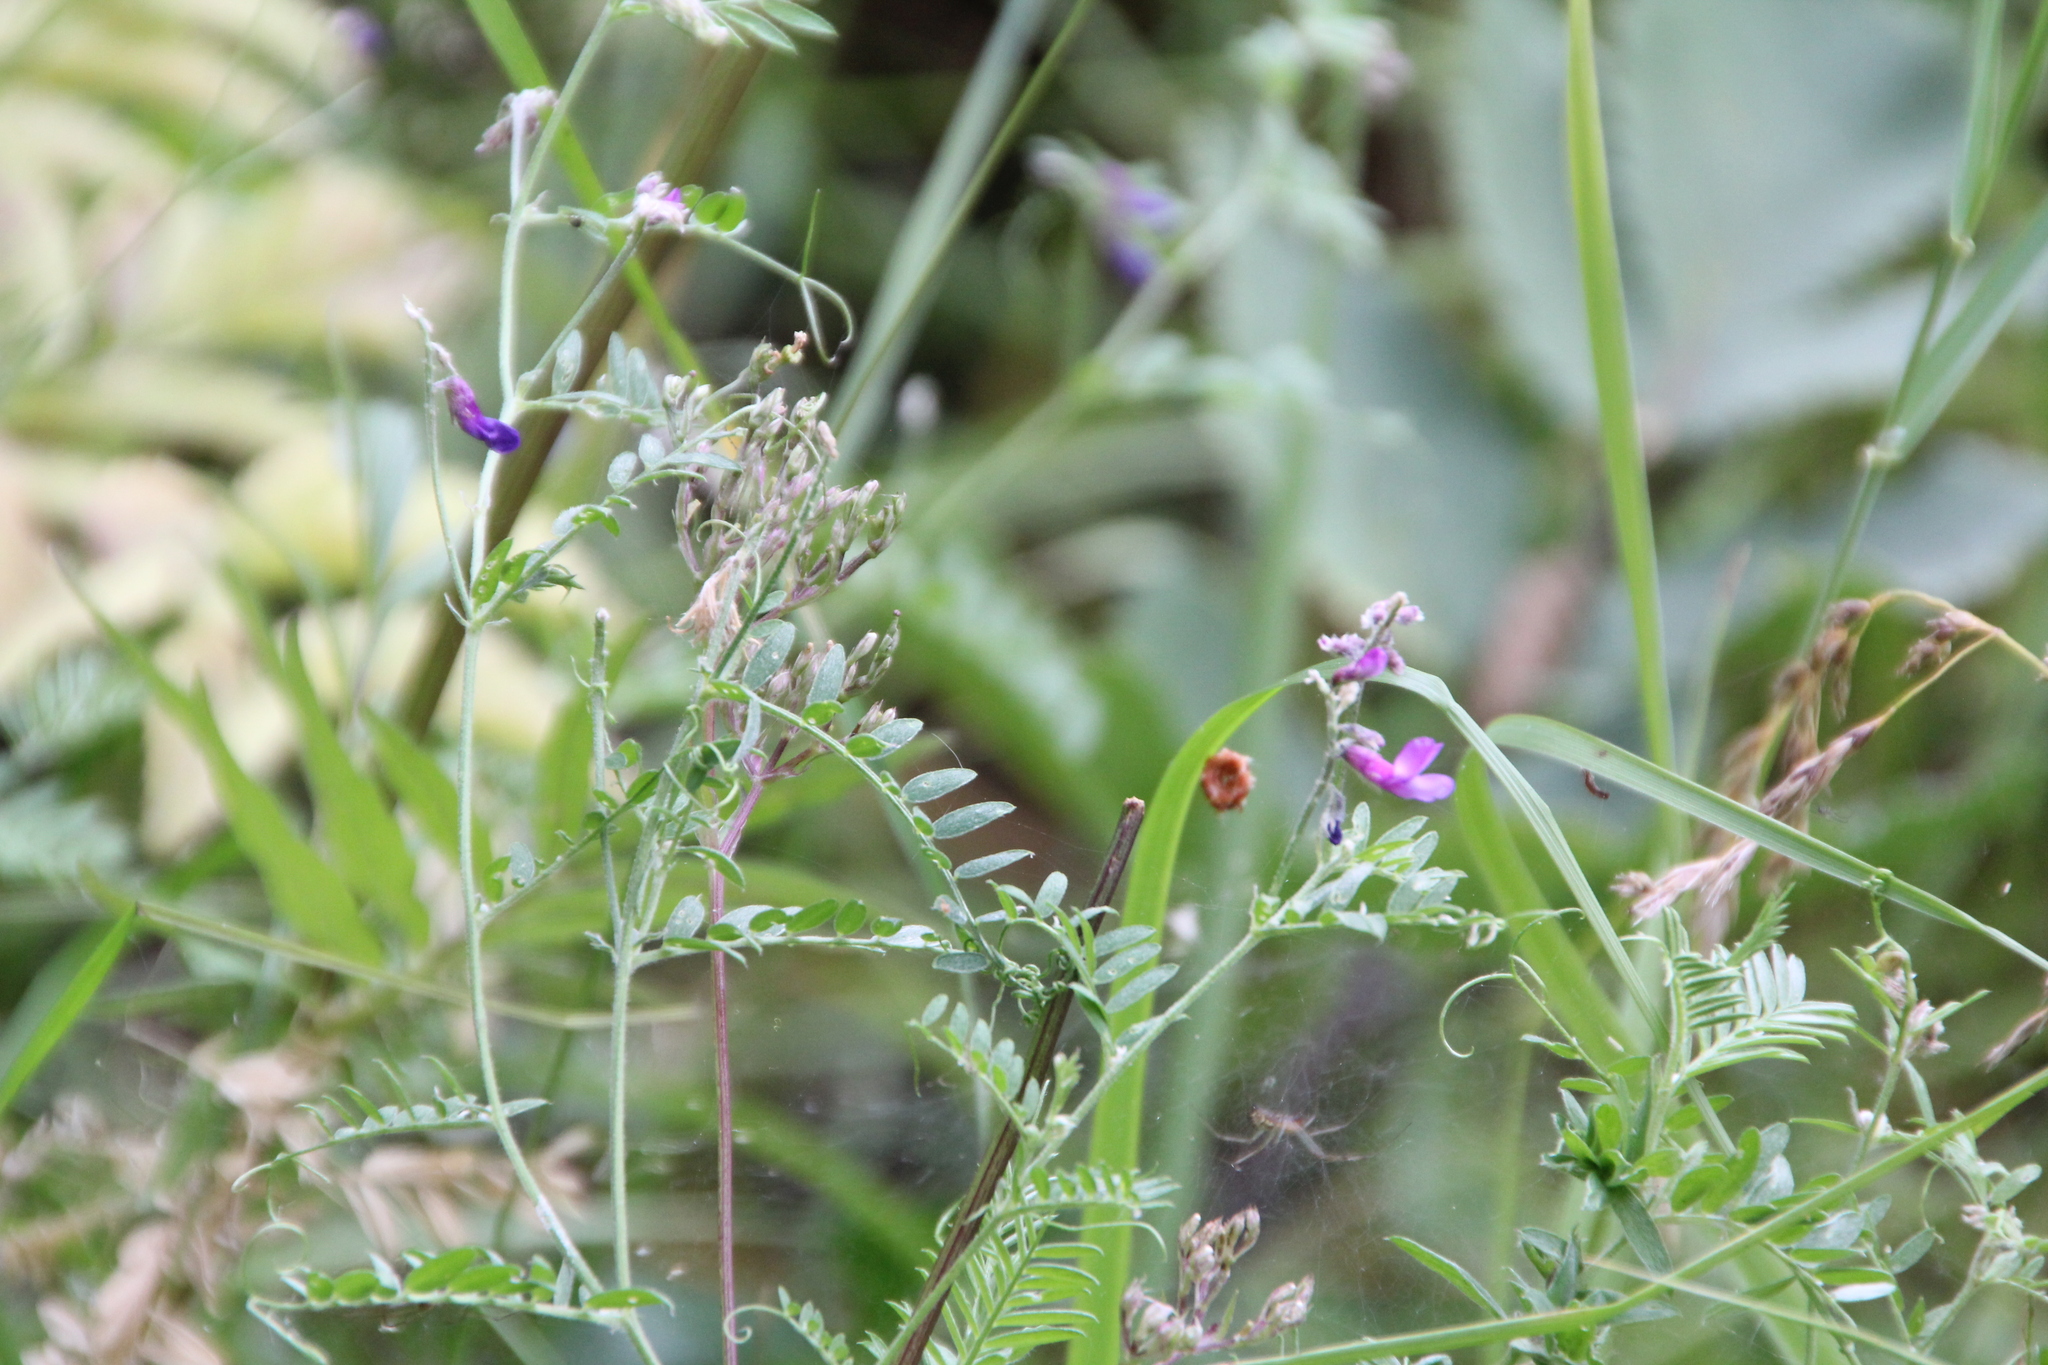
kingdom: Plantae
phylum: Tracheophyta
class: Magnoliopsida
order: Fabales
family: Fabaceae
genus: Vicia
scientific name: Vicia cracca
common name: Bird vetch
